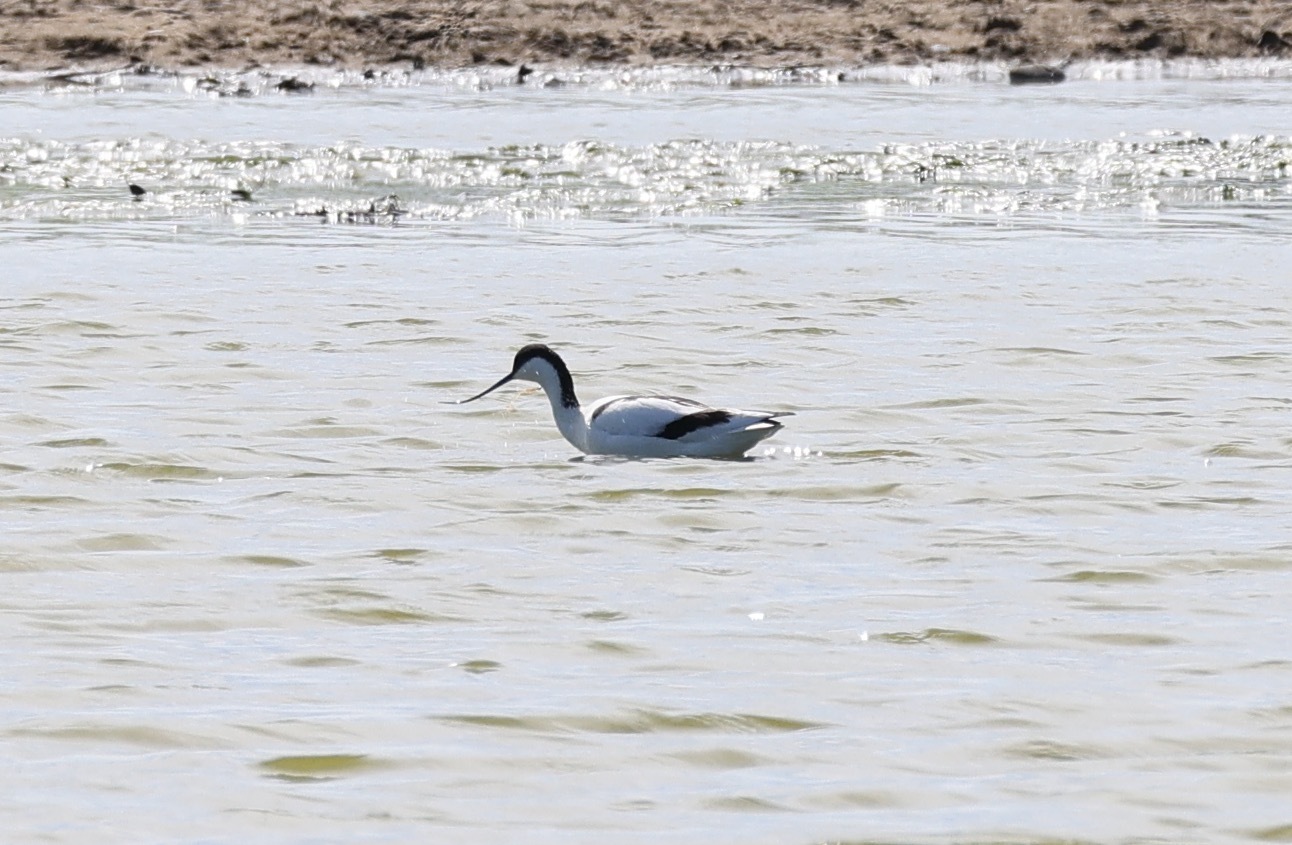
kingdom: Animalia
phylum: Chordata
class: Aves
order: Charadriiformes
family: Recurvirostridae
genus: Recurvirostra
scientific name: Recurvirostra avosetta
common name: Pied avocet
